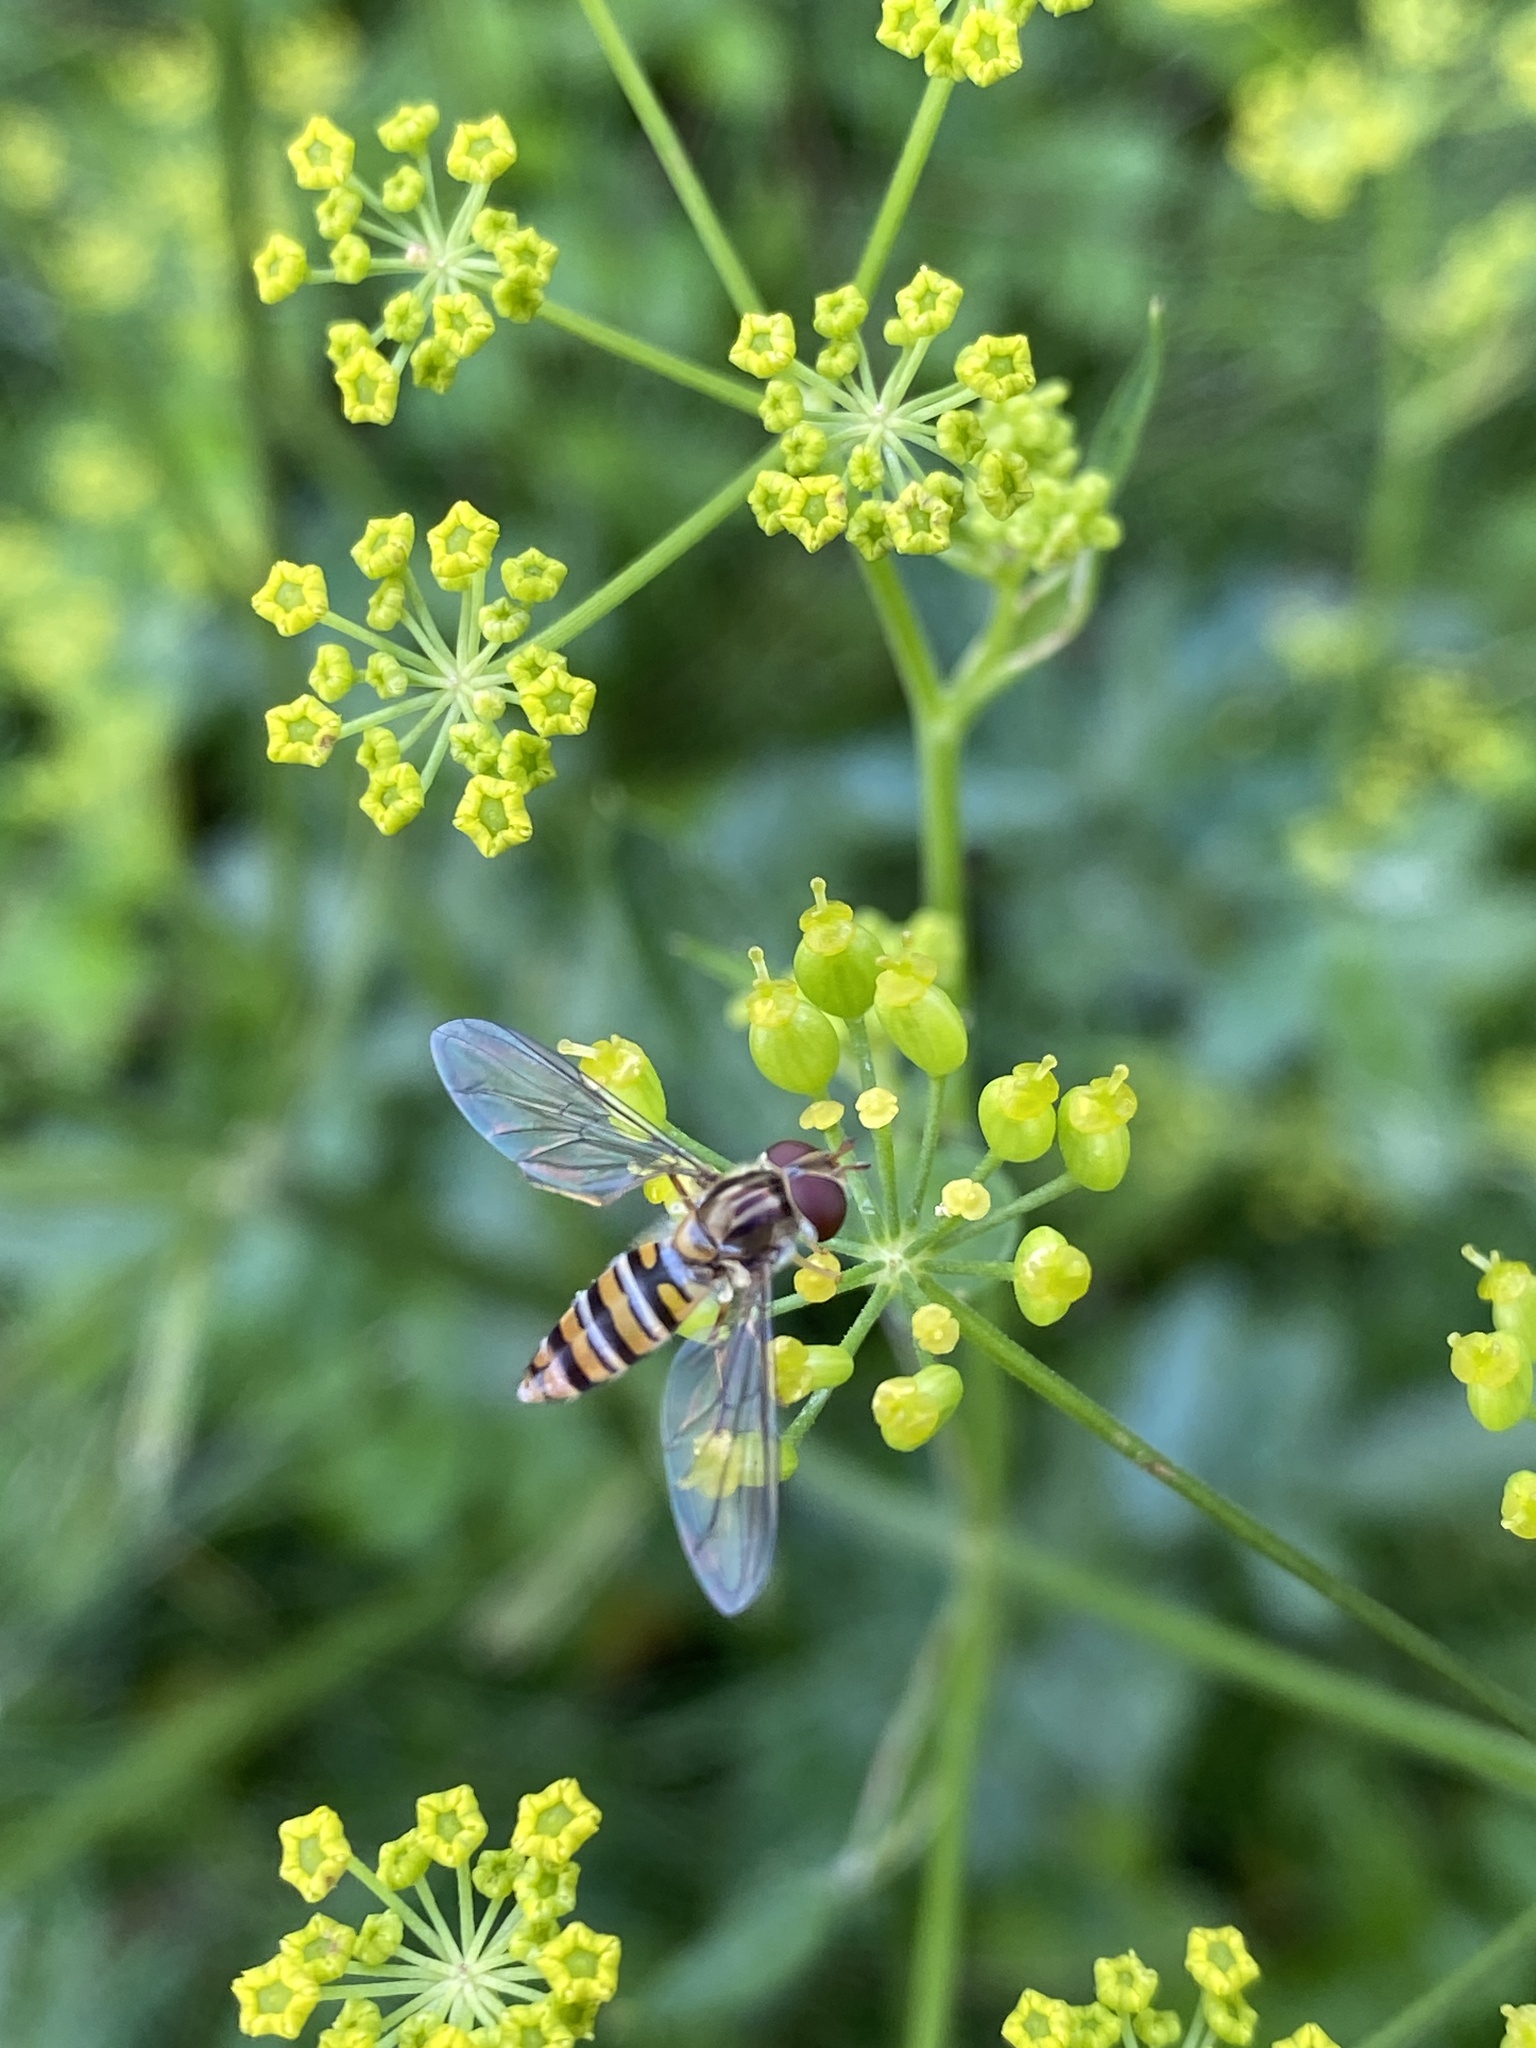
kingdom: Animalia
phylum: Arthropoda
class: Insecta
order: Diptera
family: Syrphidae
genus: Episyrphus
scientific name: Episyrphus balteatus
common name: Marmalade hoverfly
